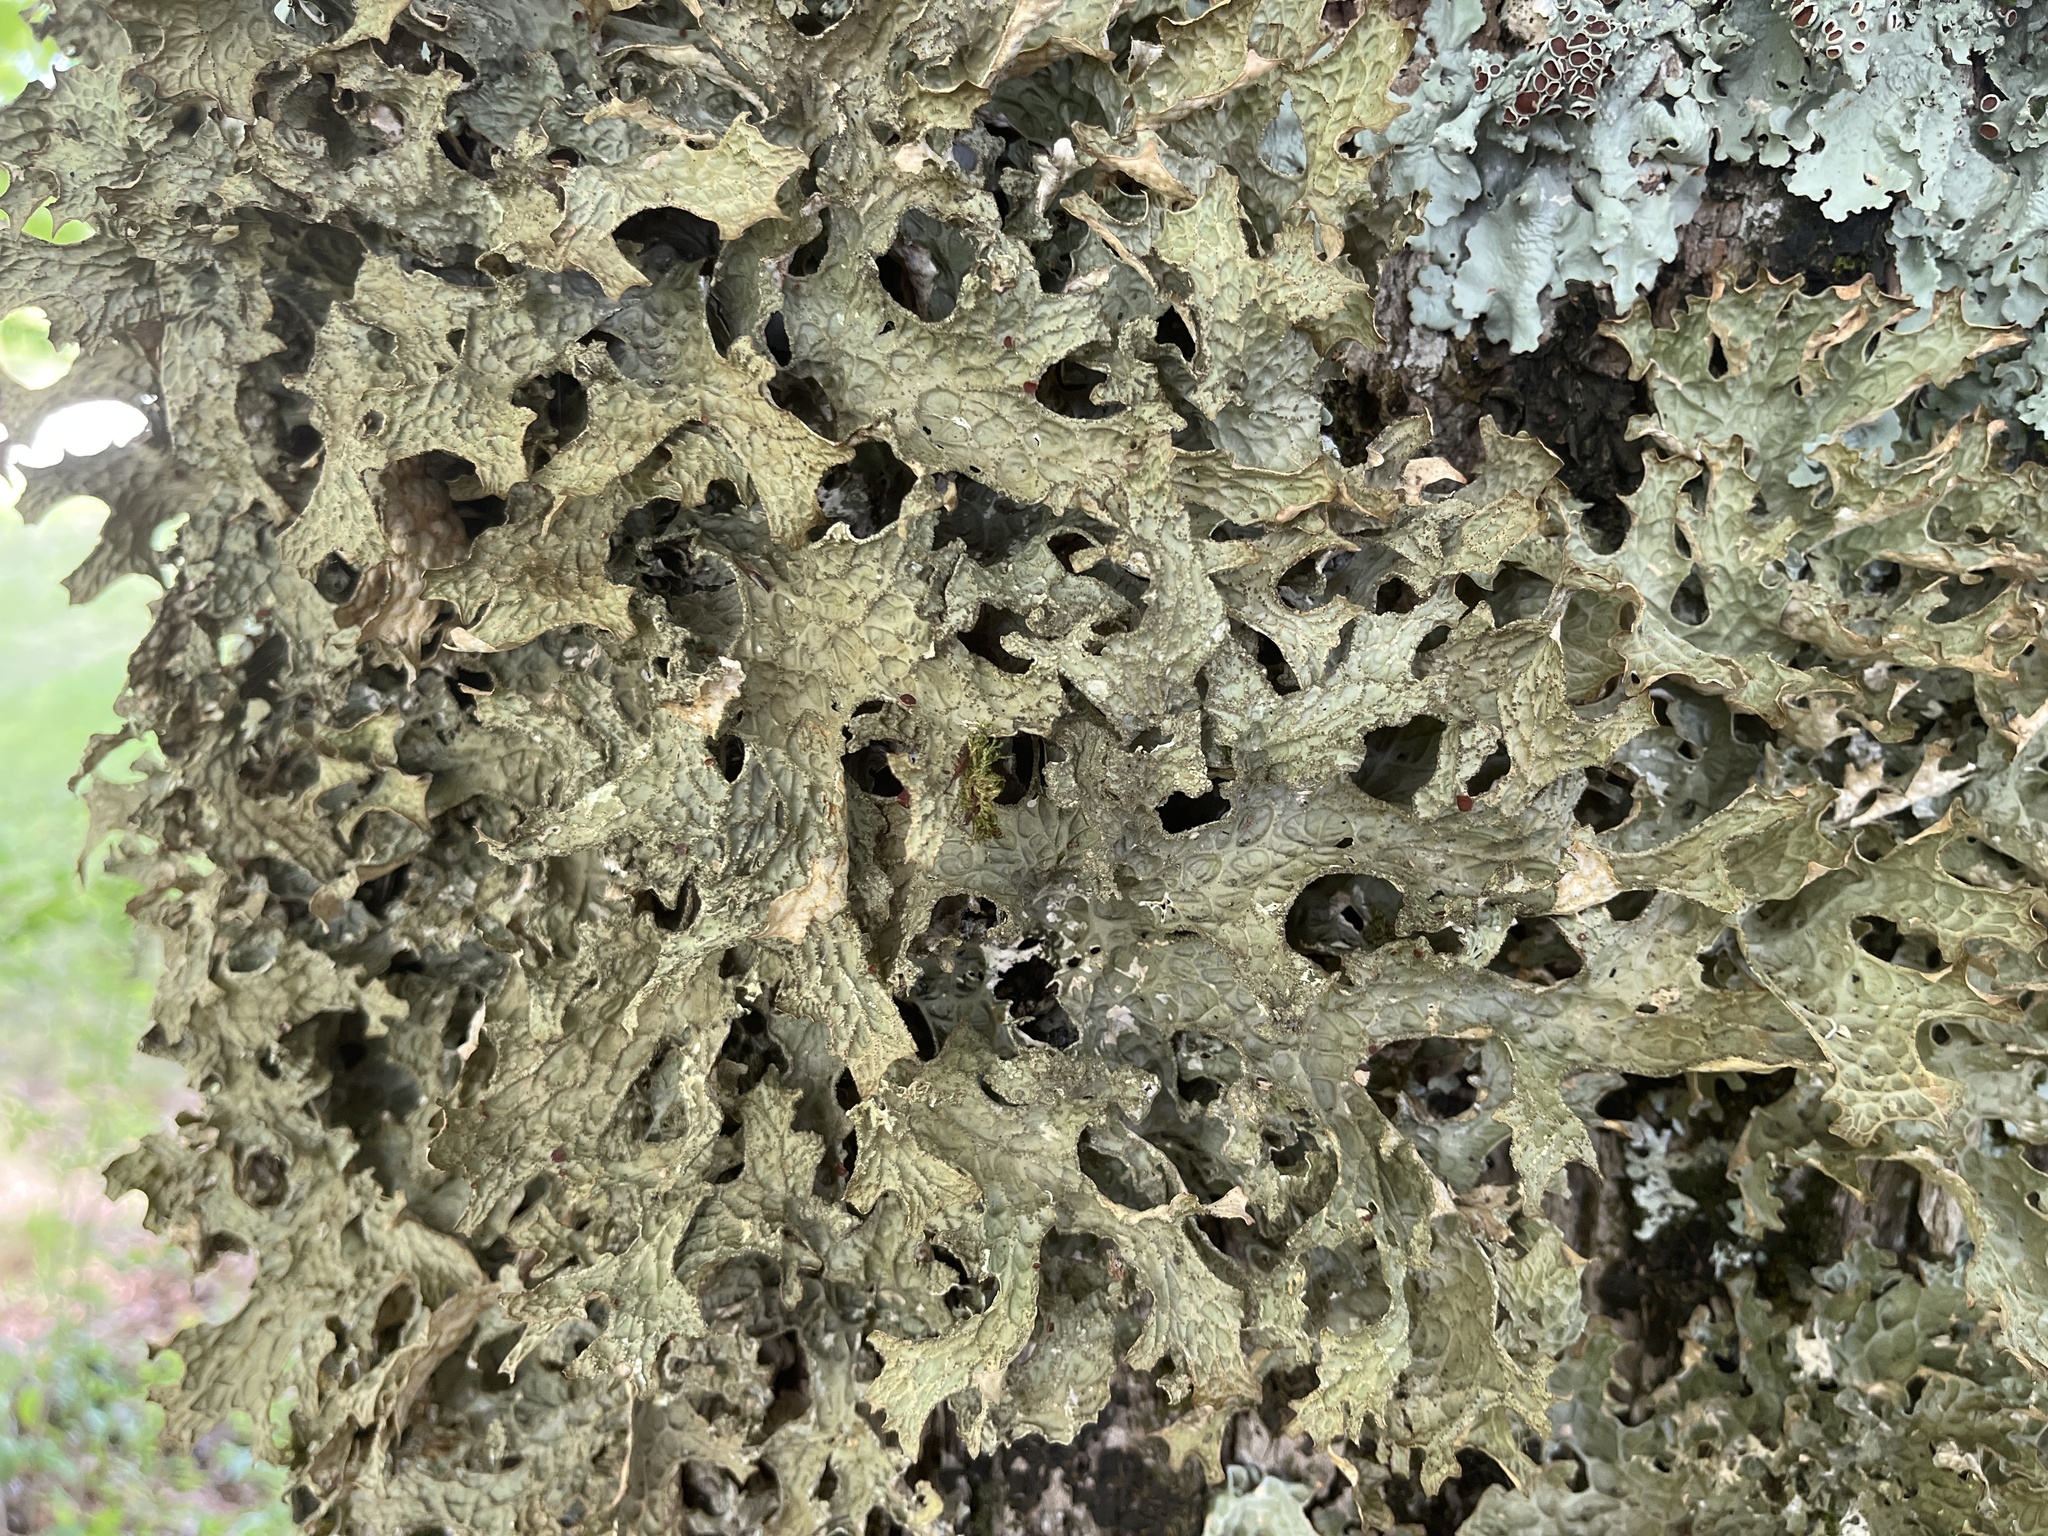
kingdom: Fungi
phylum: Ascomycota
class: Lecanoromycetes
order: Peltigerales
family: Lobariaceae
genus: Lobaria
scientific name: Lobaria pulmonaria
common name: Lungwort
